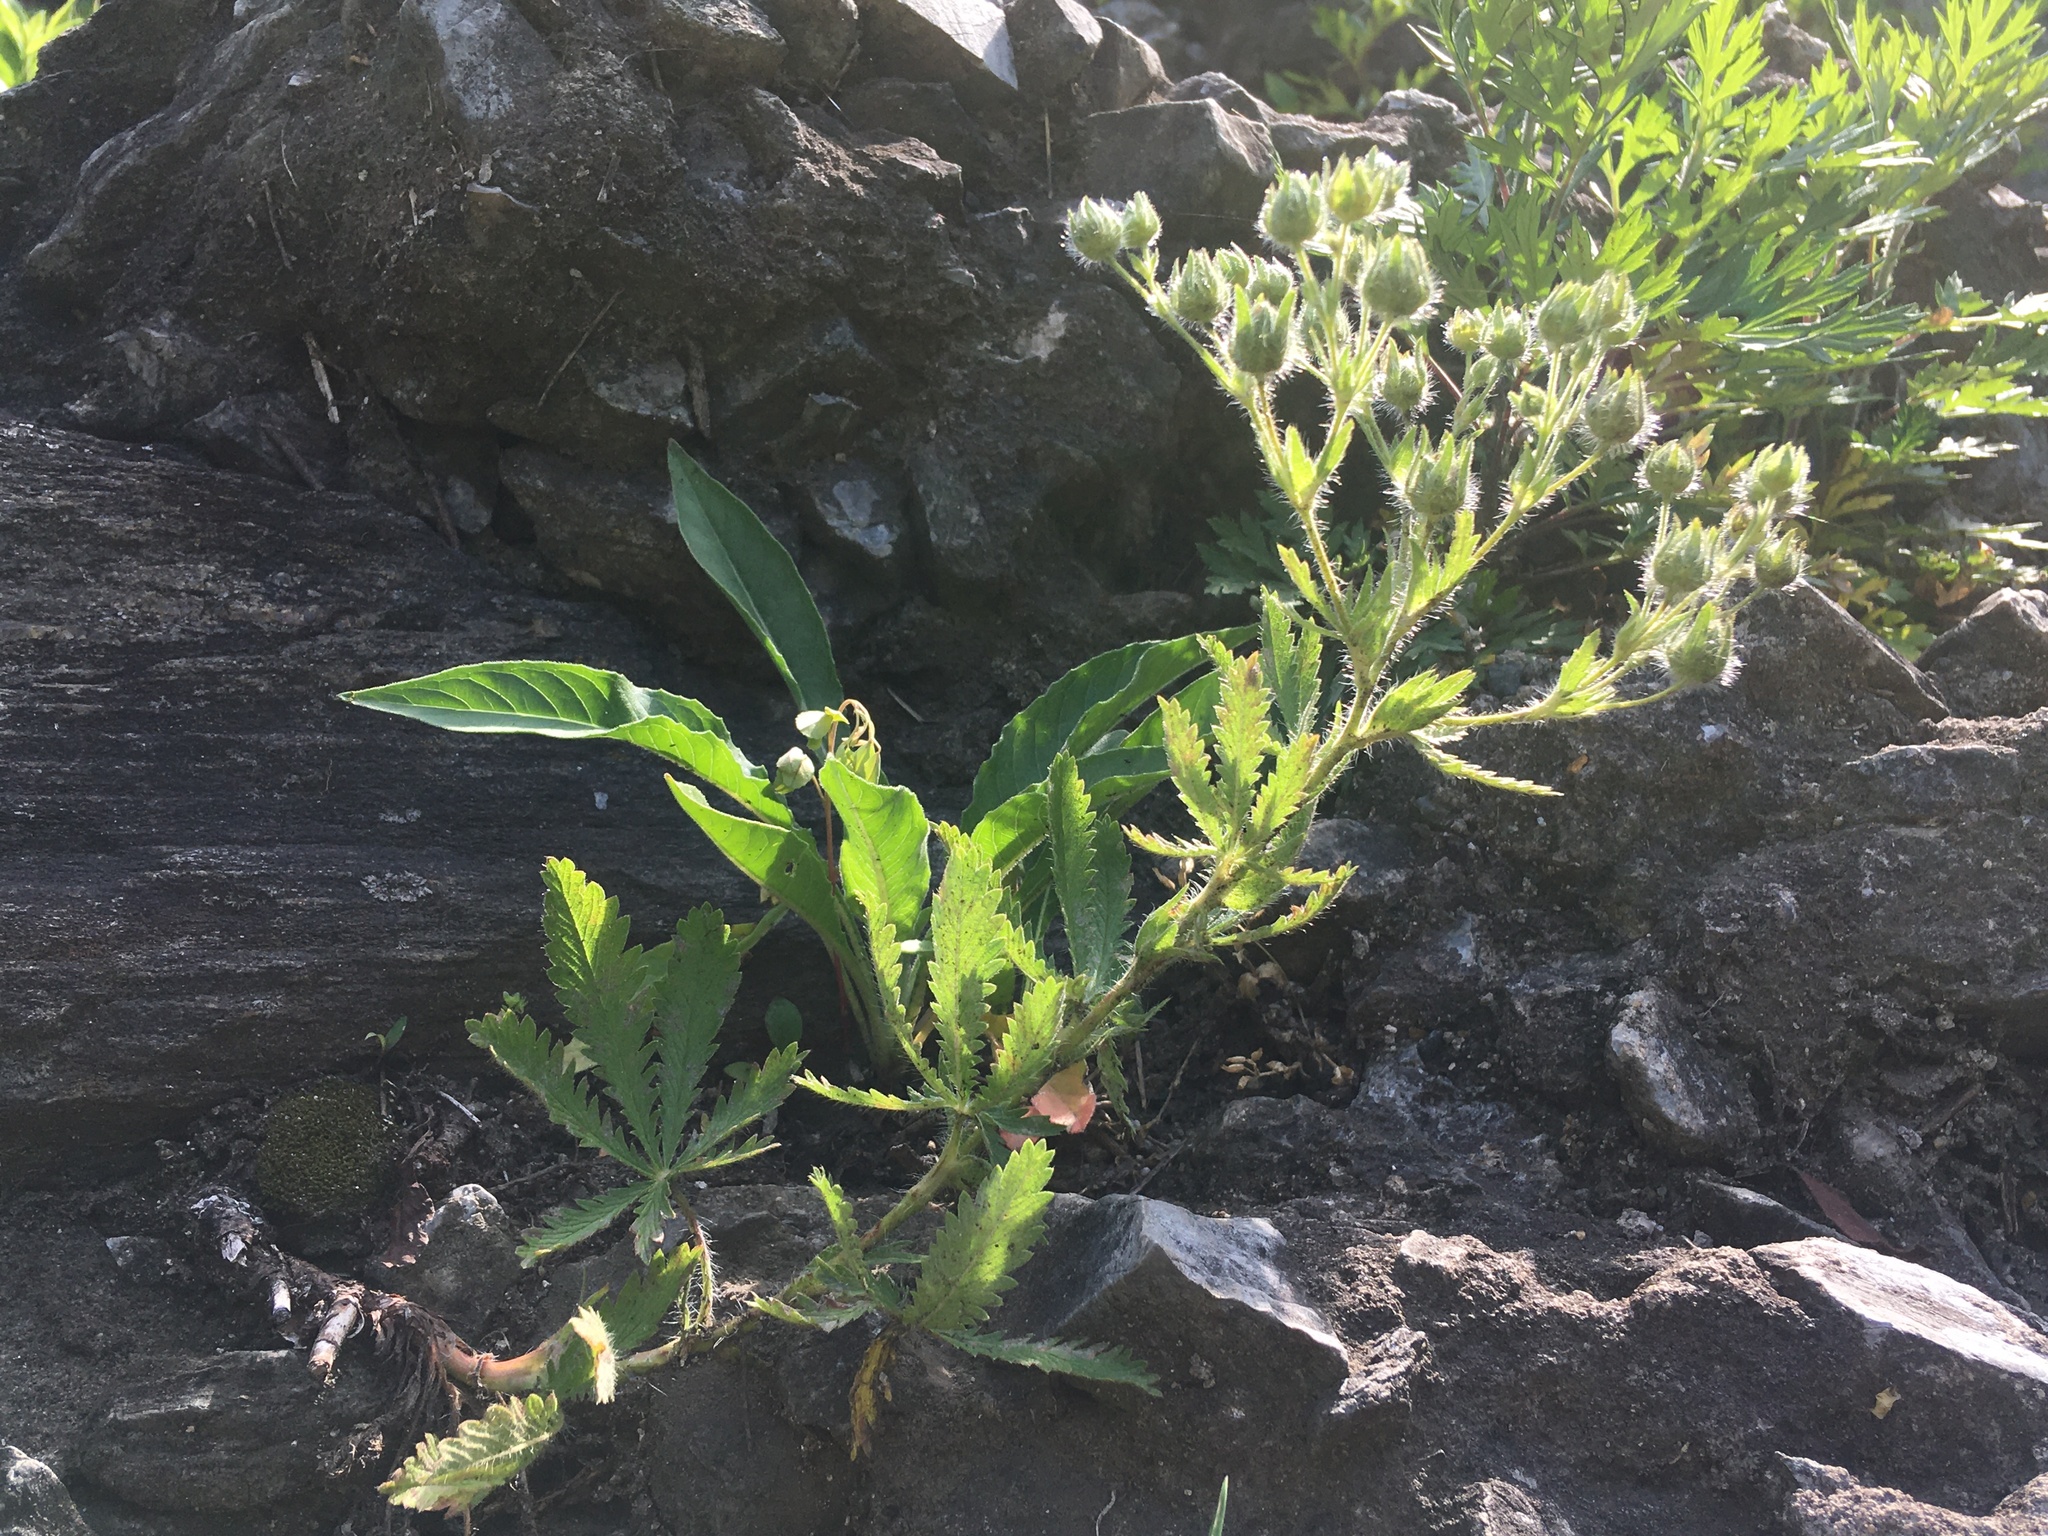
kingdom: Plantae
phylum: Tracheophyta
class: Magnoliopsida
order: Rosales
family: Rosaceae
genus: Potentilla
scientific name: Potentilla recta
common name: Sulphur cinquefoil
